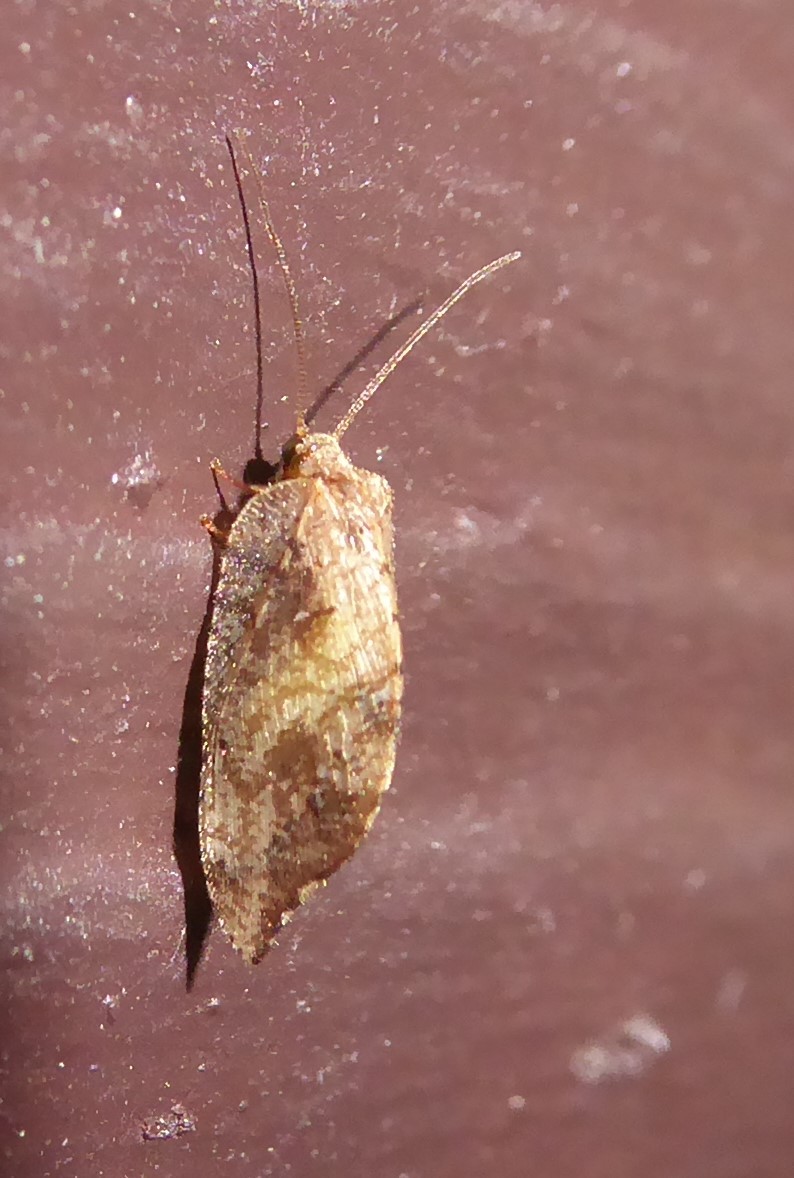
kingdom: Animalia
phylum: Arthropoda
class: Insecta
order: Neuroptera
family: Hemerobiidae
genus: Drepanacra
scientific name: Drepanacra binocula
